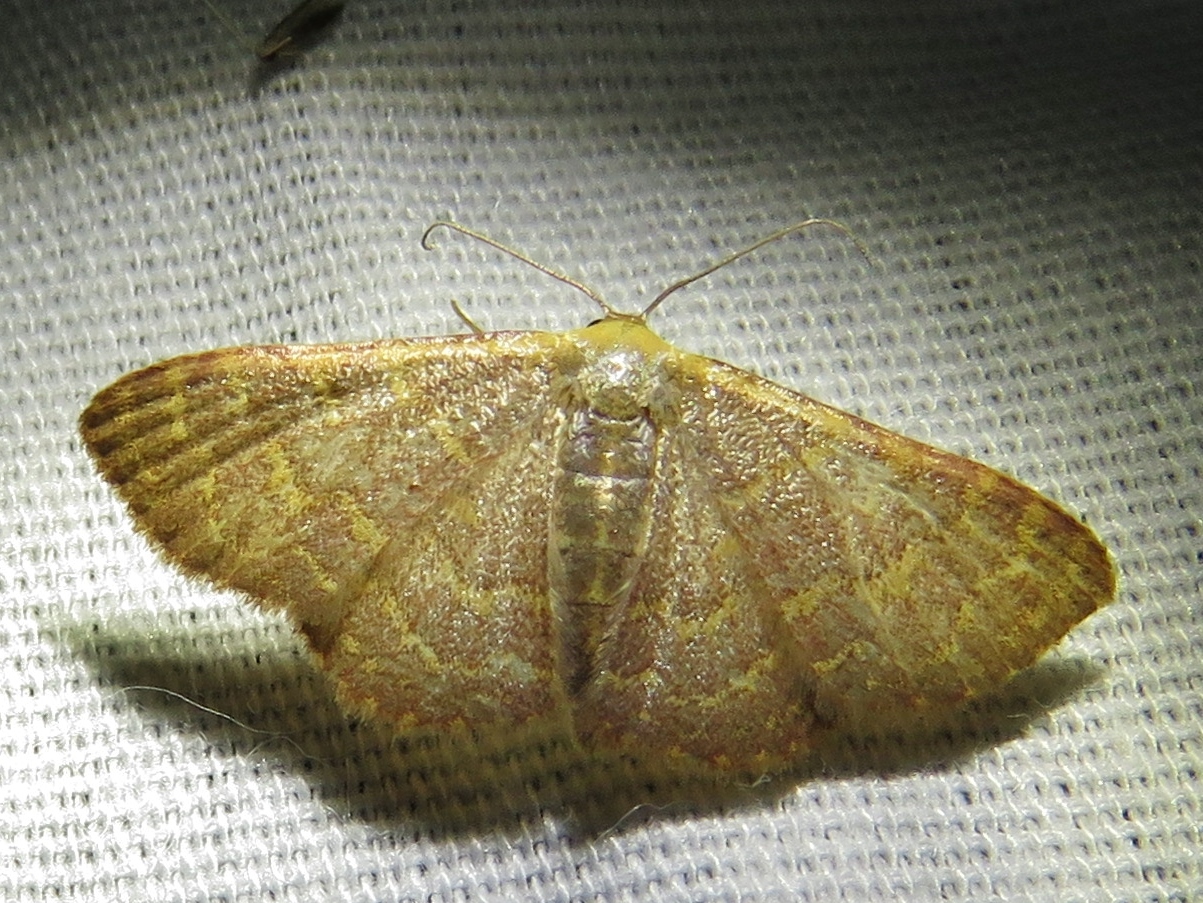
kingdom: Animalia
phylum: Arthropoda
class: Insecta
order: Lepidoptera
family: Geometridae
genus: Leptostales
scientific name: Leptostales pannaria
